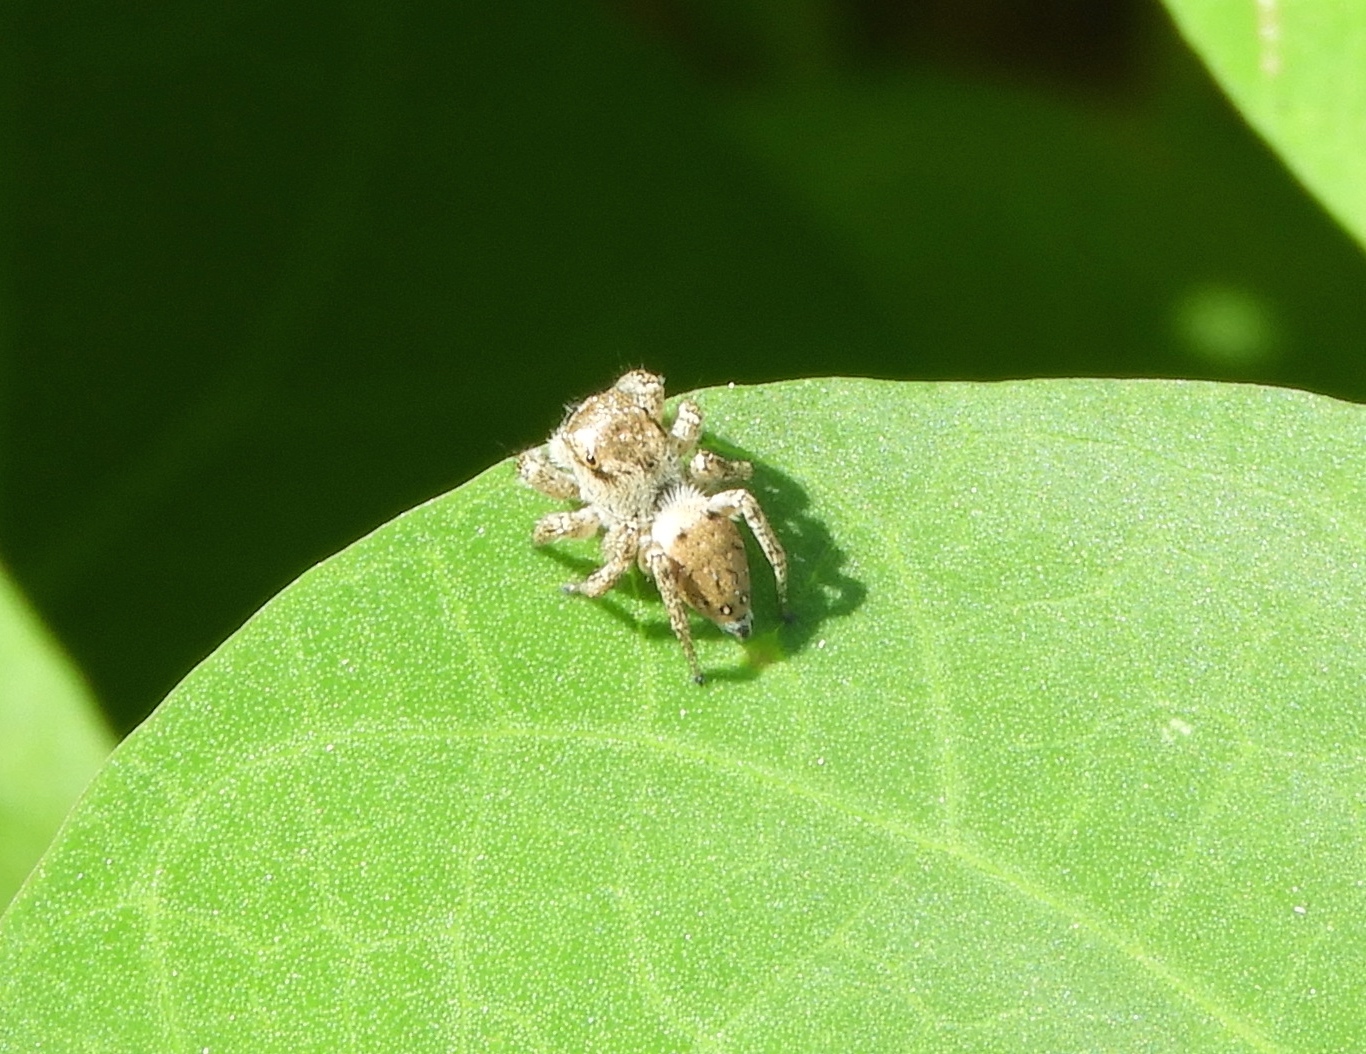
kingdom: Animalia
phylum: Arthropoda
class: Arachnida
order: Araneae
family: Salticidae
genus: Habronattus
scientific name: Habronattus
